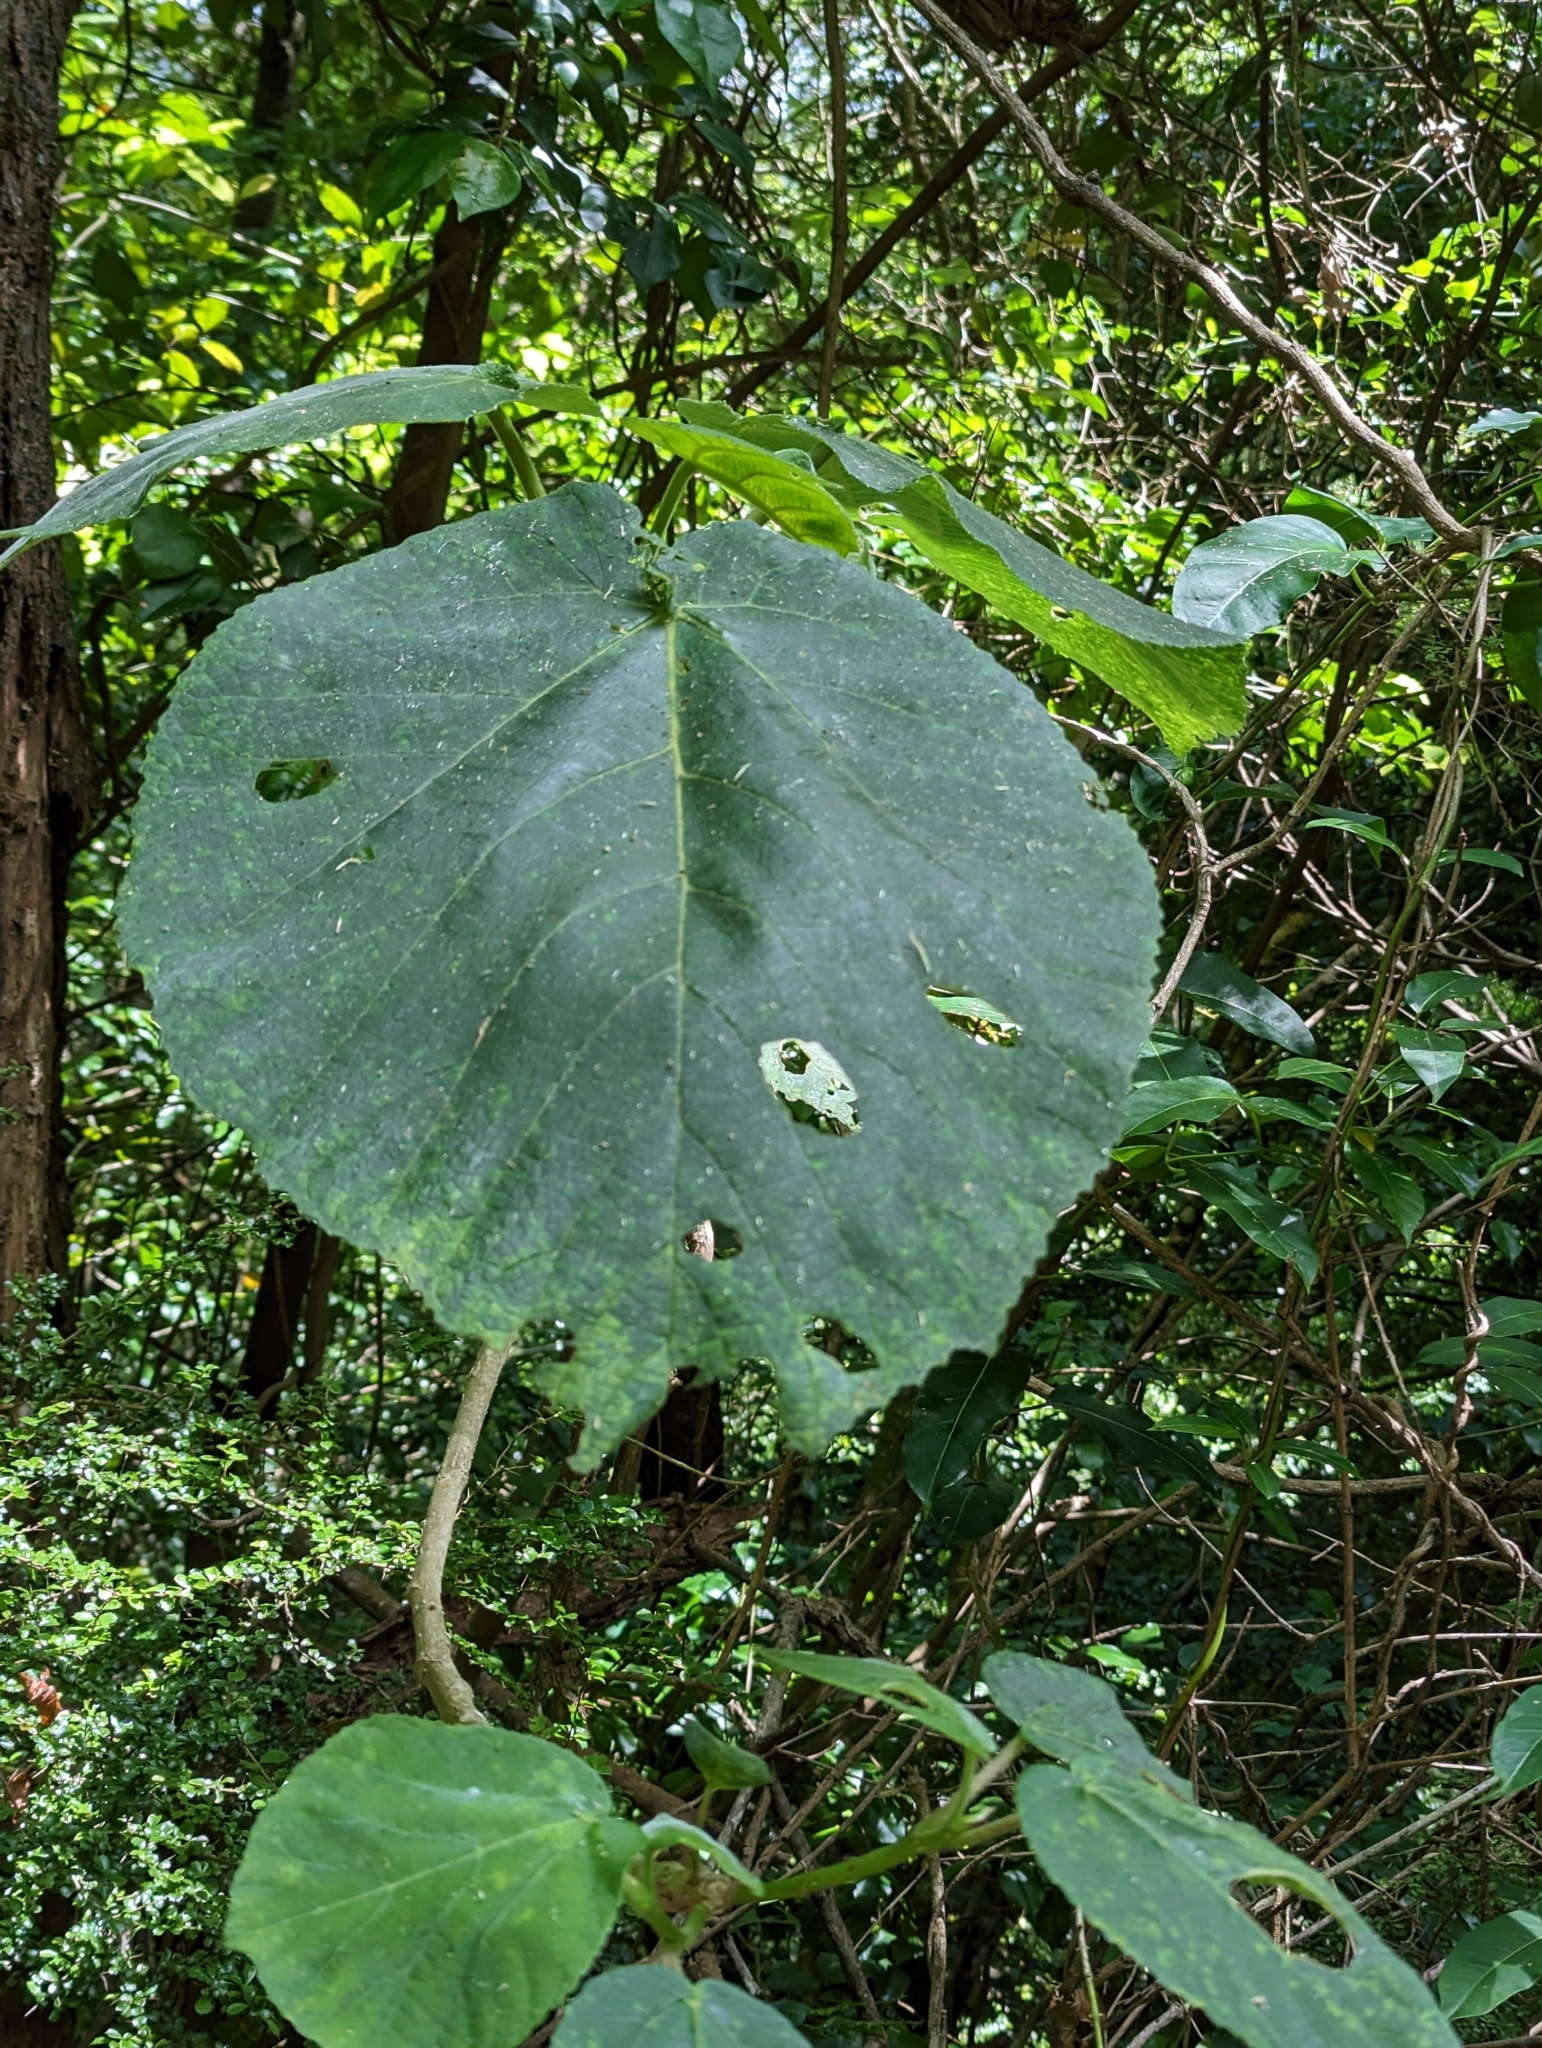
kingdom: Plantae
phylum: Tracheophyta
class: Magnoliopsida
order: Rosales
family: Urticaceae
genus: Dendrocnide
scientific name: Dendrocnide excelsa
